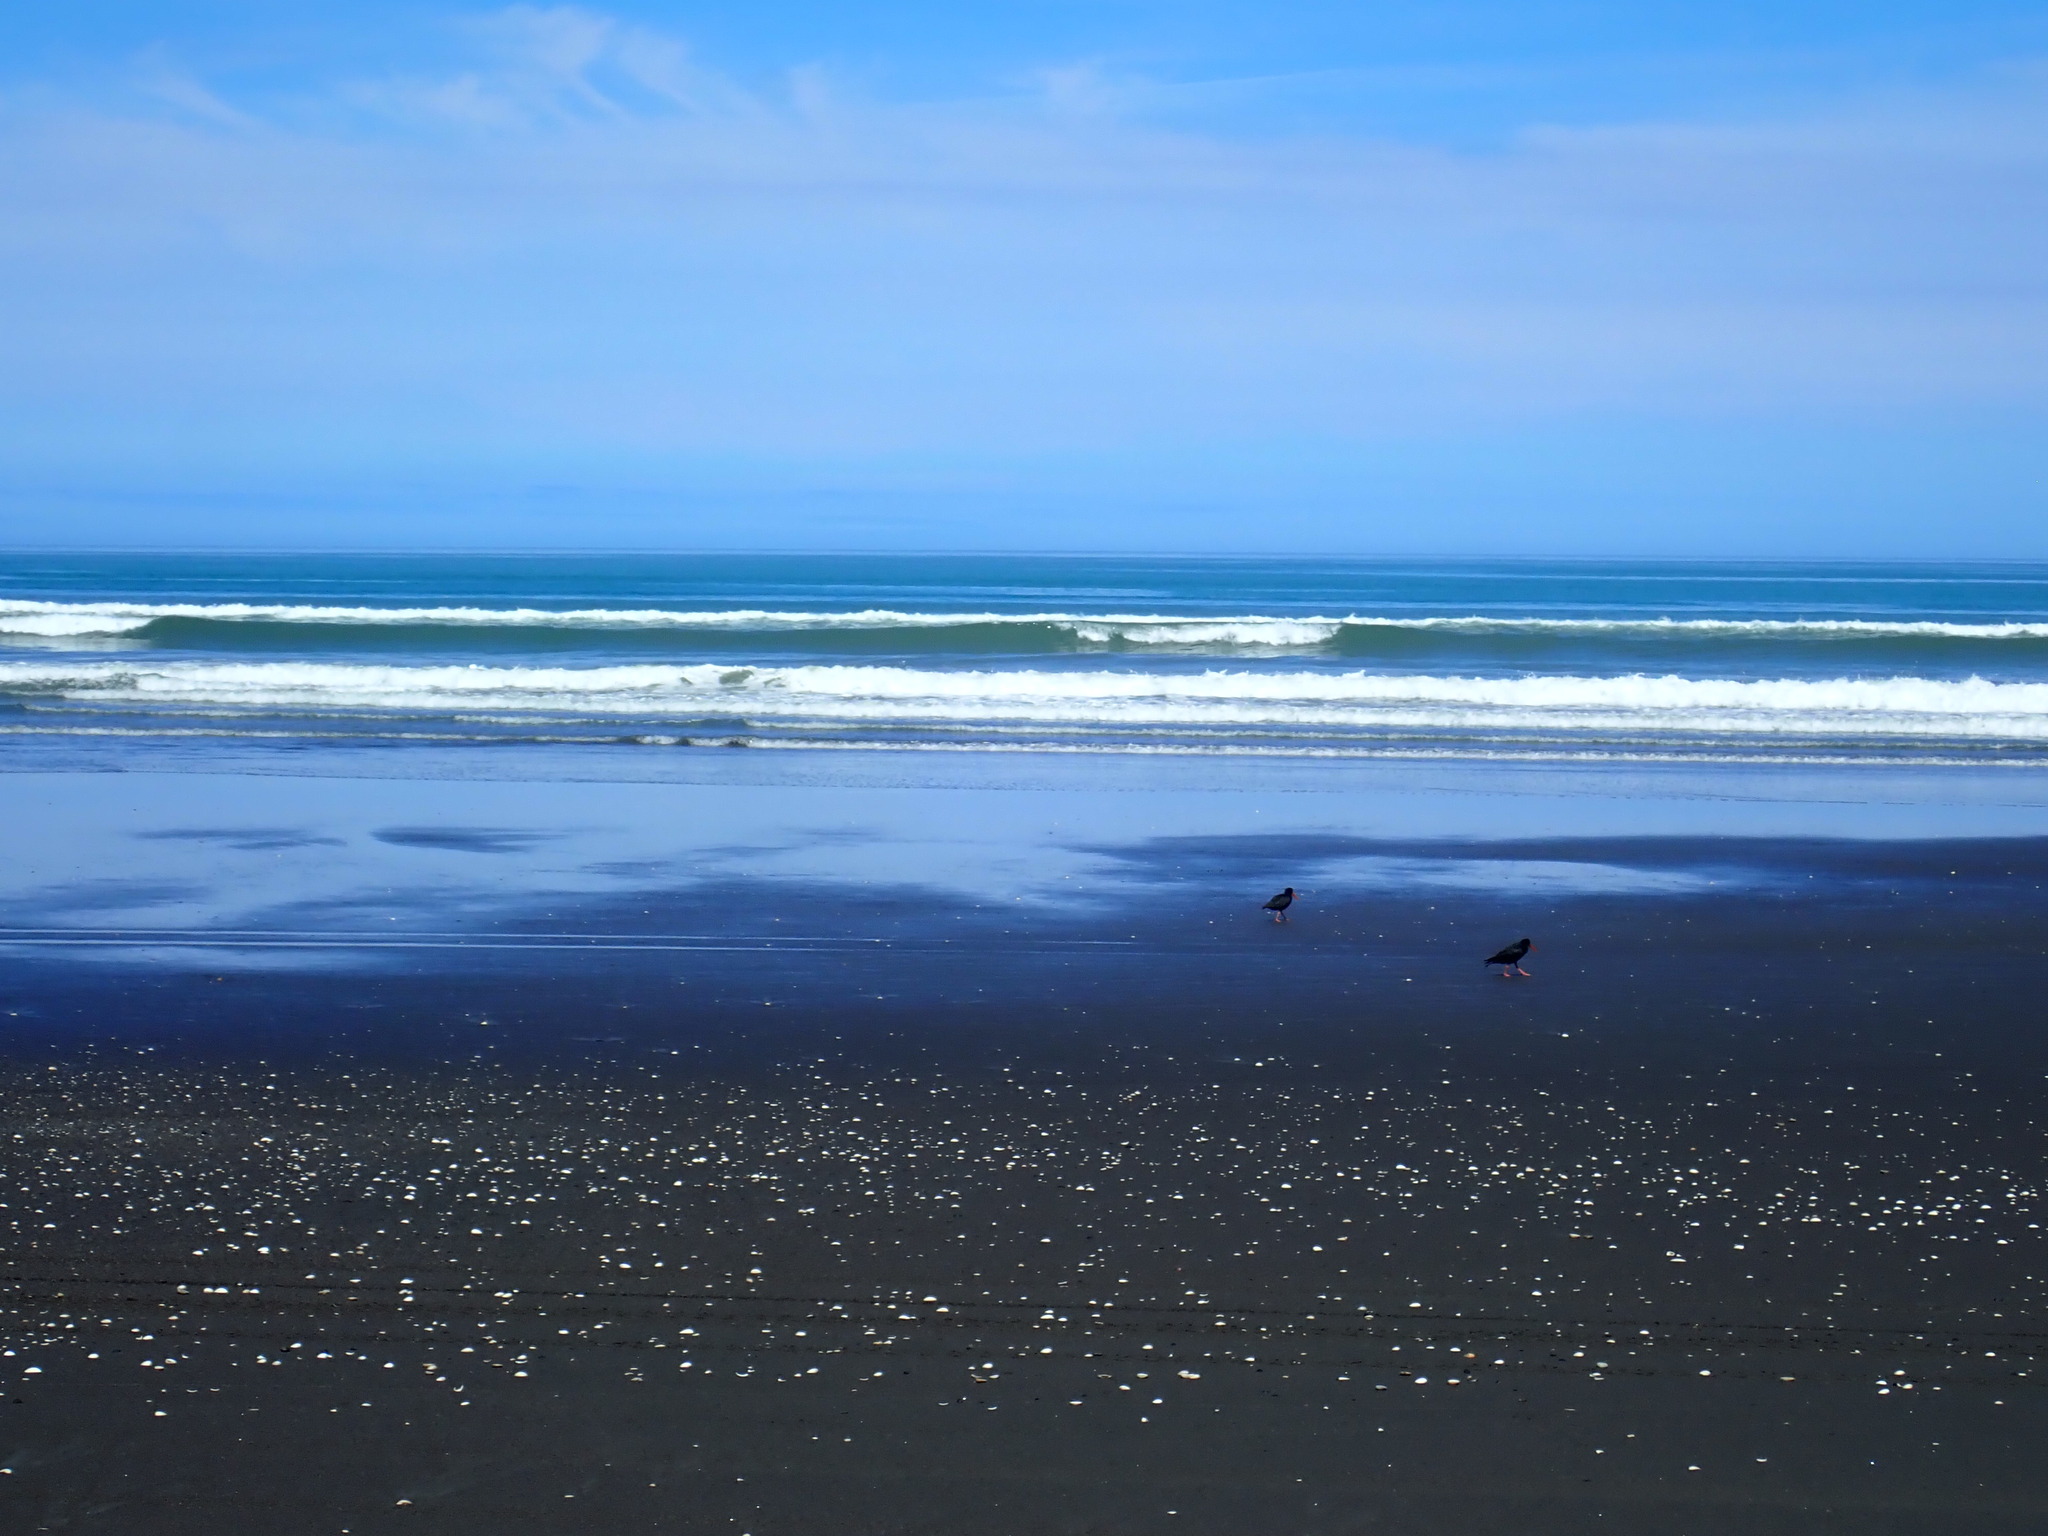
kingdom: Animalia
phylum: Chordata
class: Aves
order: Charadriiformes
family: Haematopodidae
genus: Haematopus
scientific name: Haematopus unicolor
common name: Variable oystercatcher
